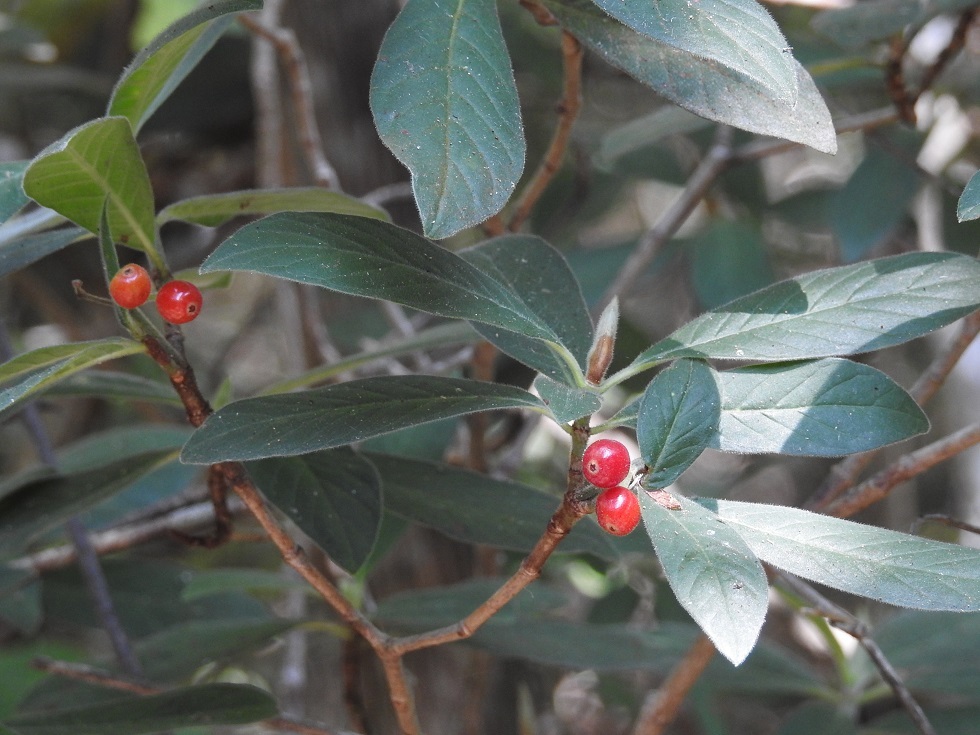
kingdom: Plantae
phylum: Tracheophyta
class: Magnoliopsida
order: Gentianales
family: Rubiaceae
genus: Psychotria
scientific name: Psychotria erythrocarpa
